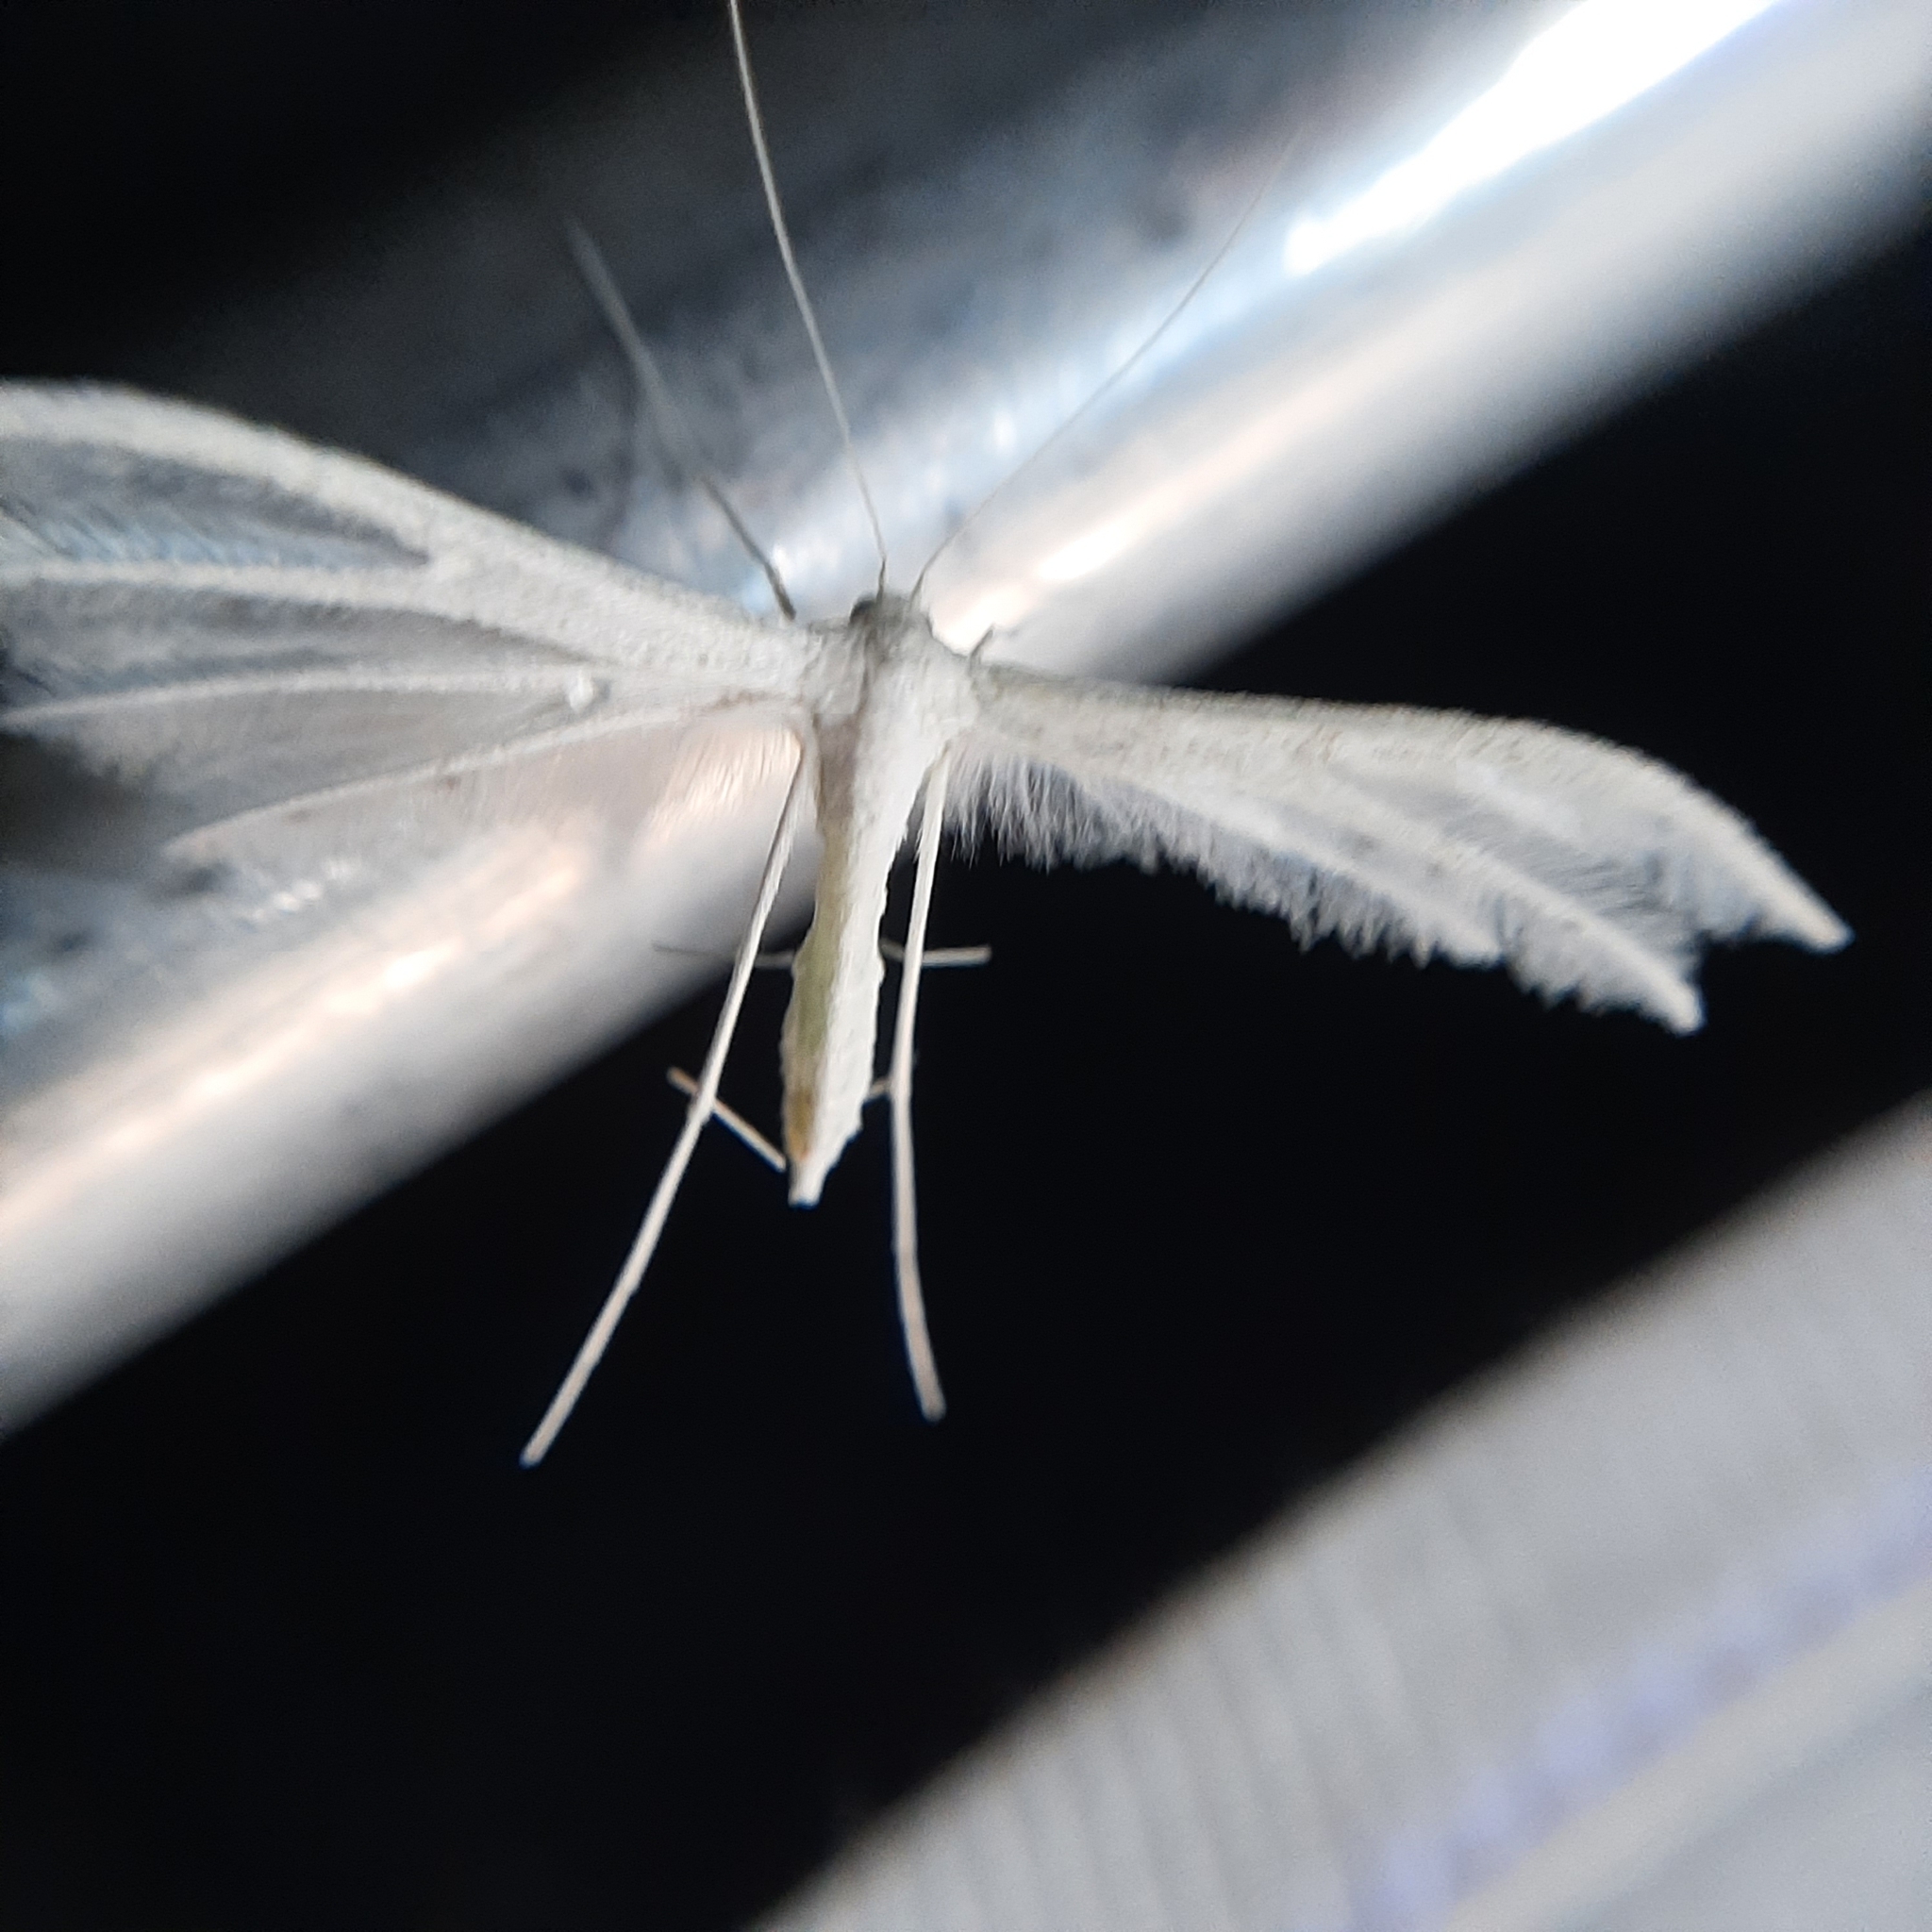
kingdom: Animalia
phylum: Arthropoda
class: Insecta
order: Lepidoptera
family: Pterophoridae
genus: Pterophorus
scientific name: Pterophorus pentadactyla
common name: White plume moth
